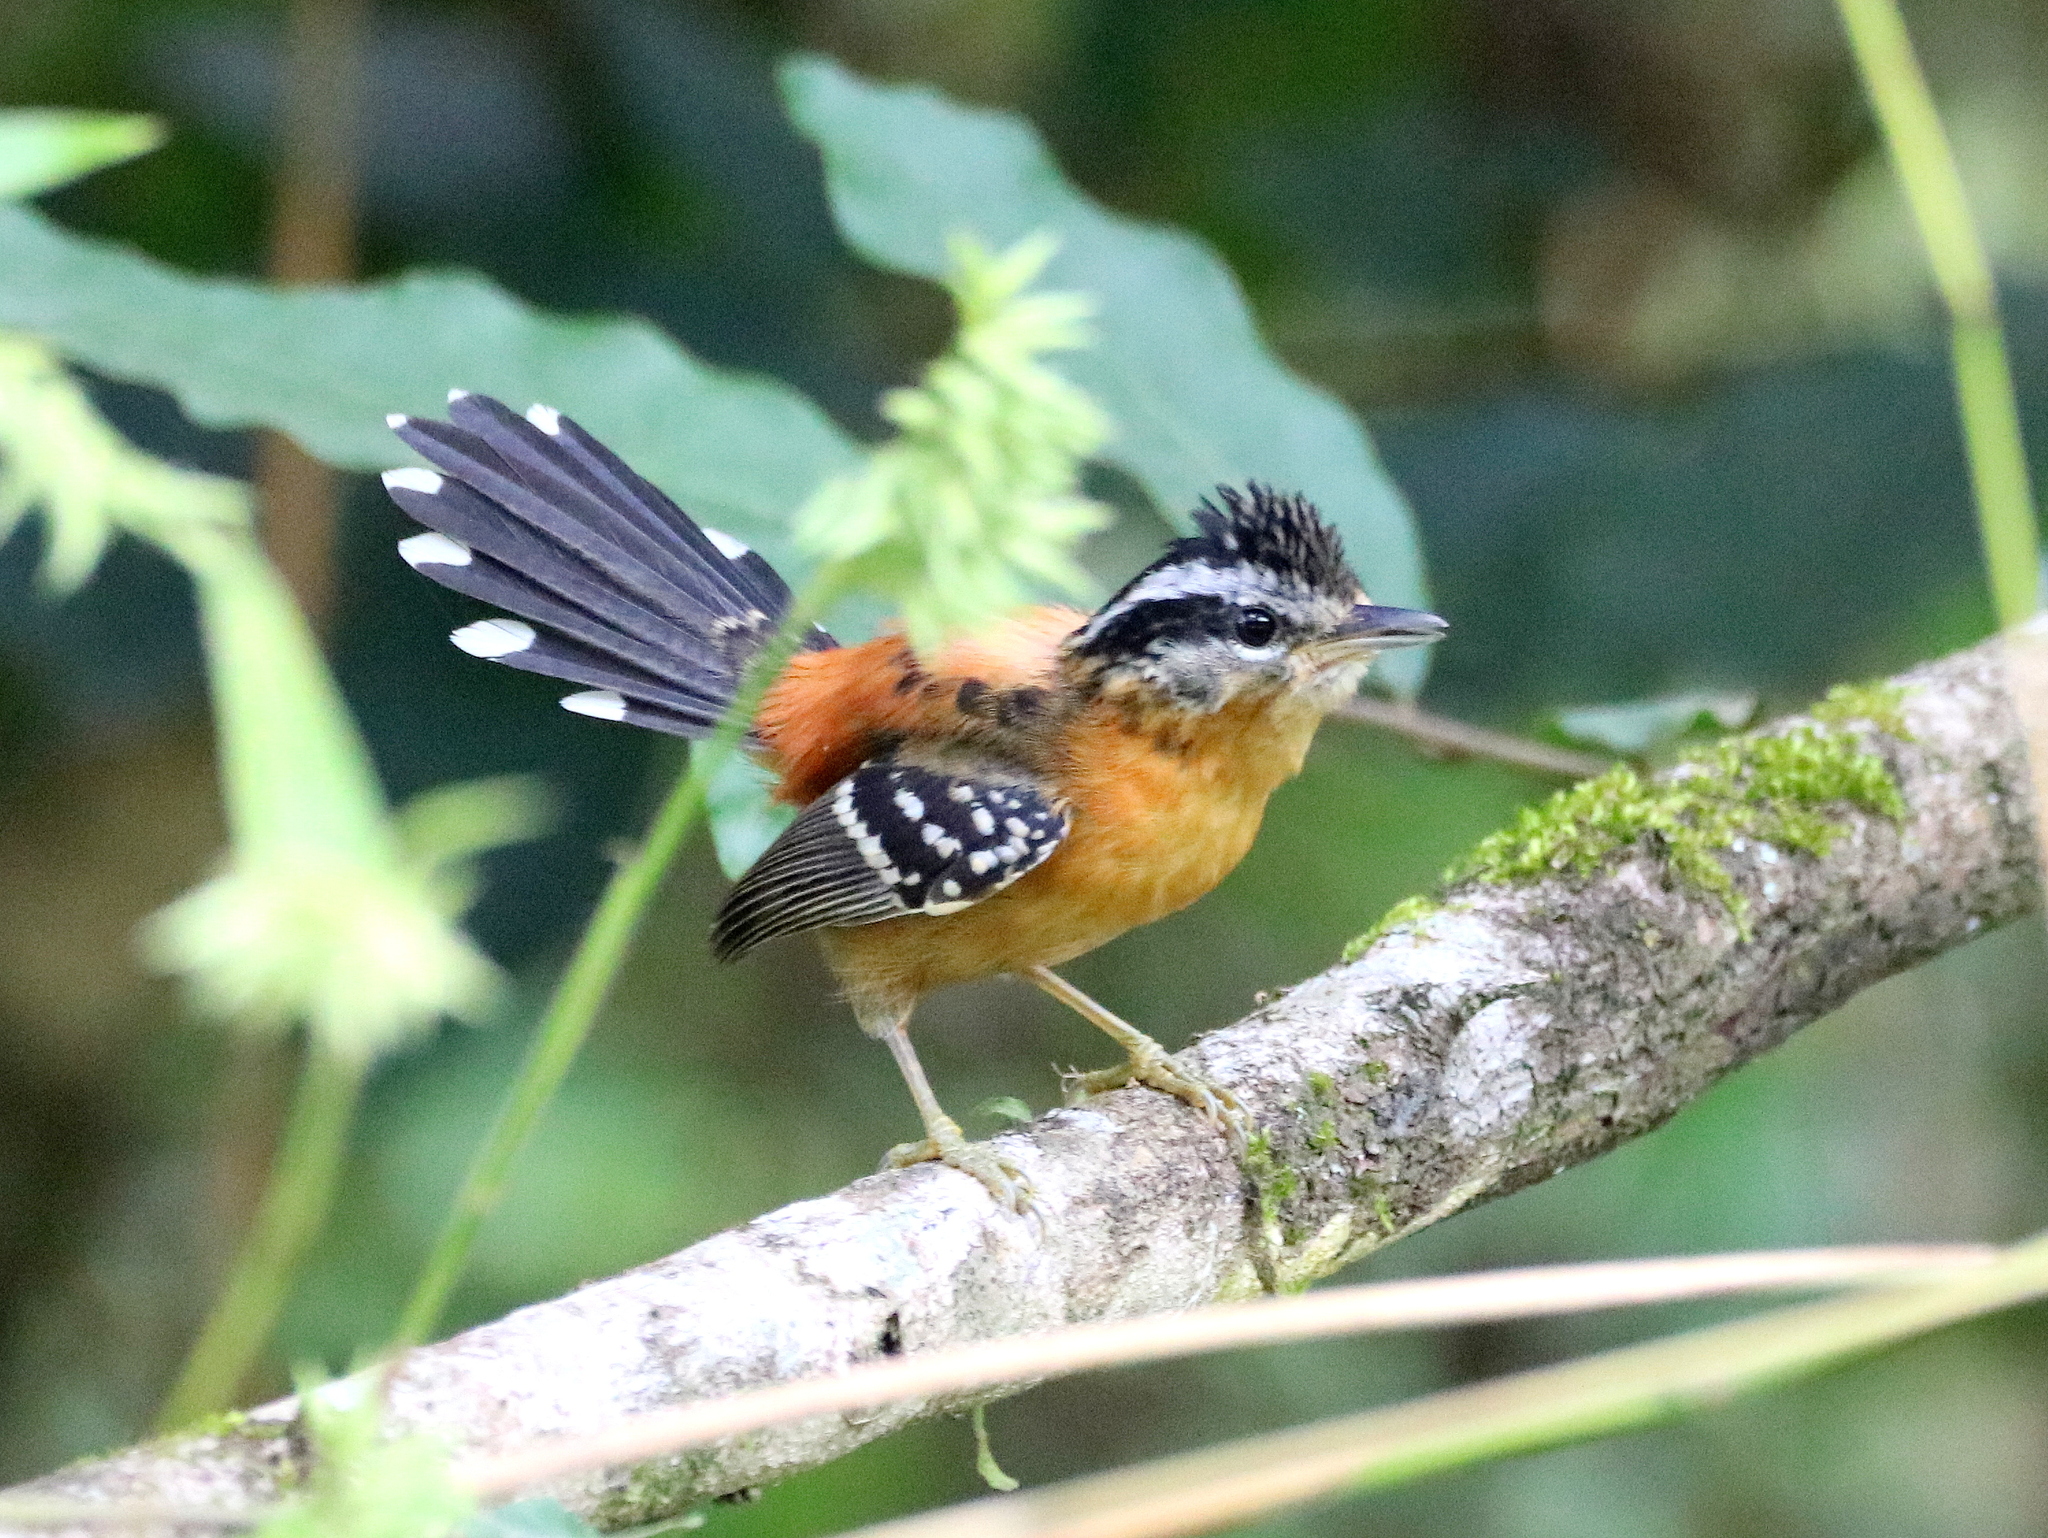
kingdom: Animalia
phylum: Chordata
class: Aves
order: Passeriformes
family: Thamnophilidae
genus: Drymophila
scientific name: Drymophila ferruginea
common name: Ferruginous antbird
